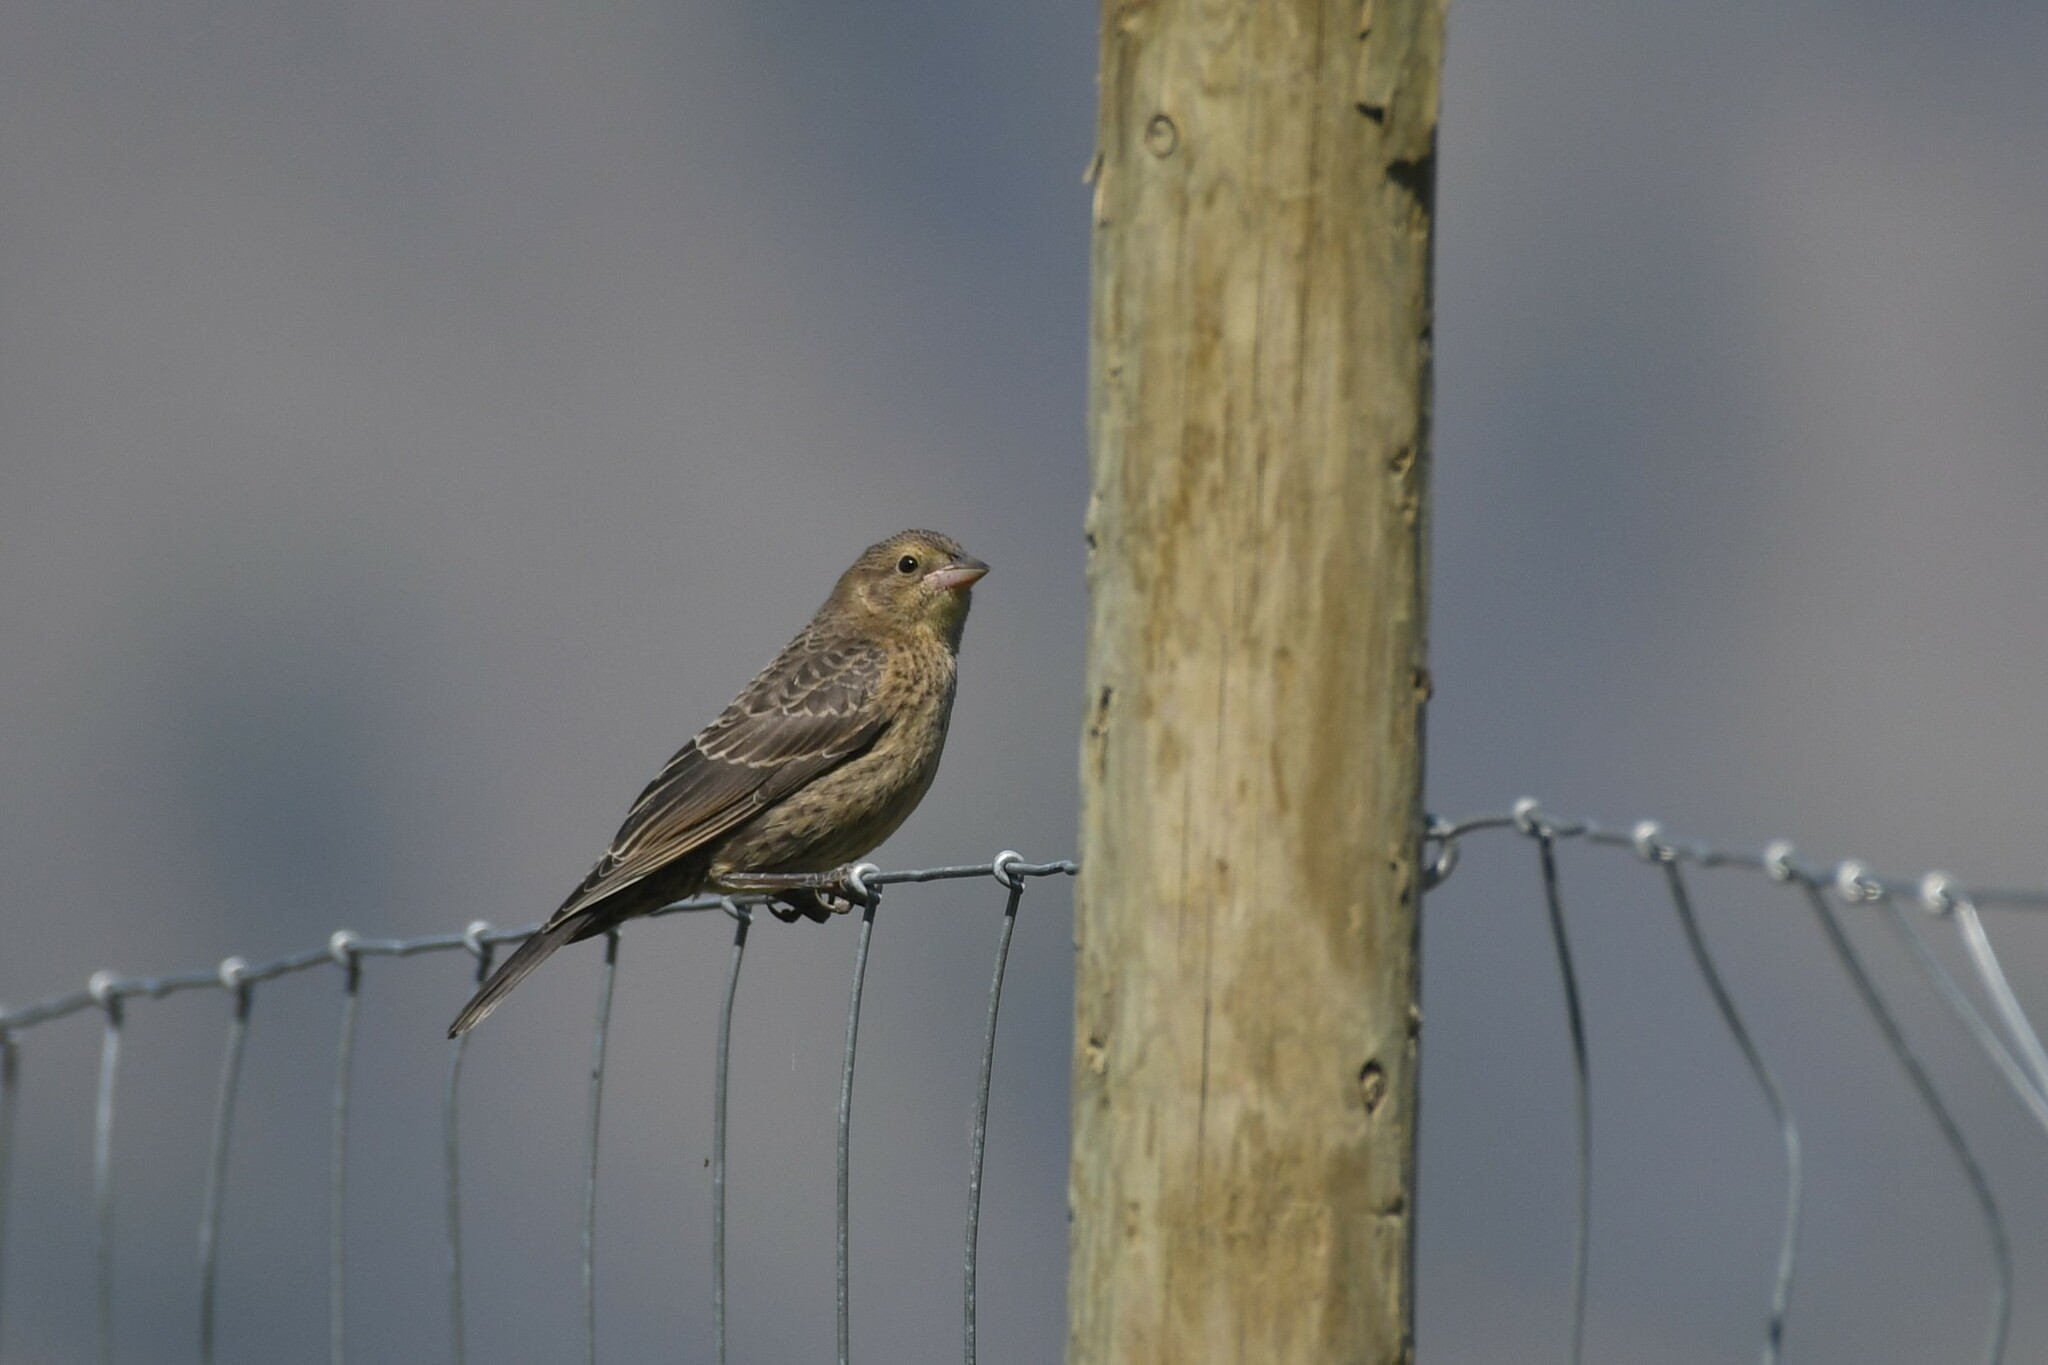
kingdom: Animalia
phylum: Chordata
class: Aves
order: Passeriformes
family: Icteridae
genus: Molothrus
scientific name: Molothrus ater
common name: Brown-headed cowbird
